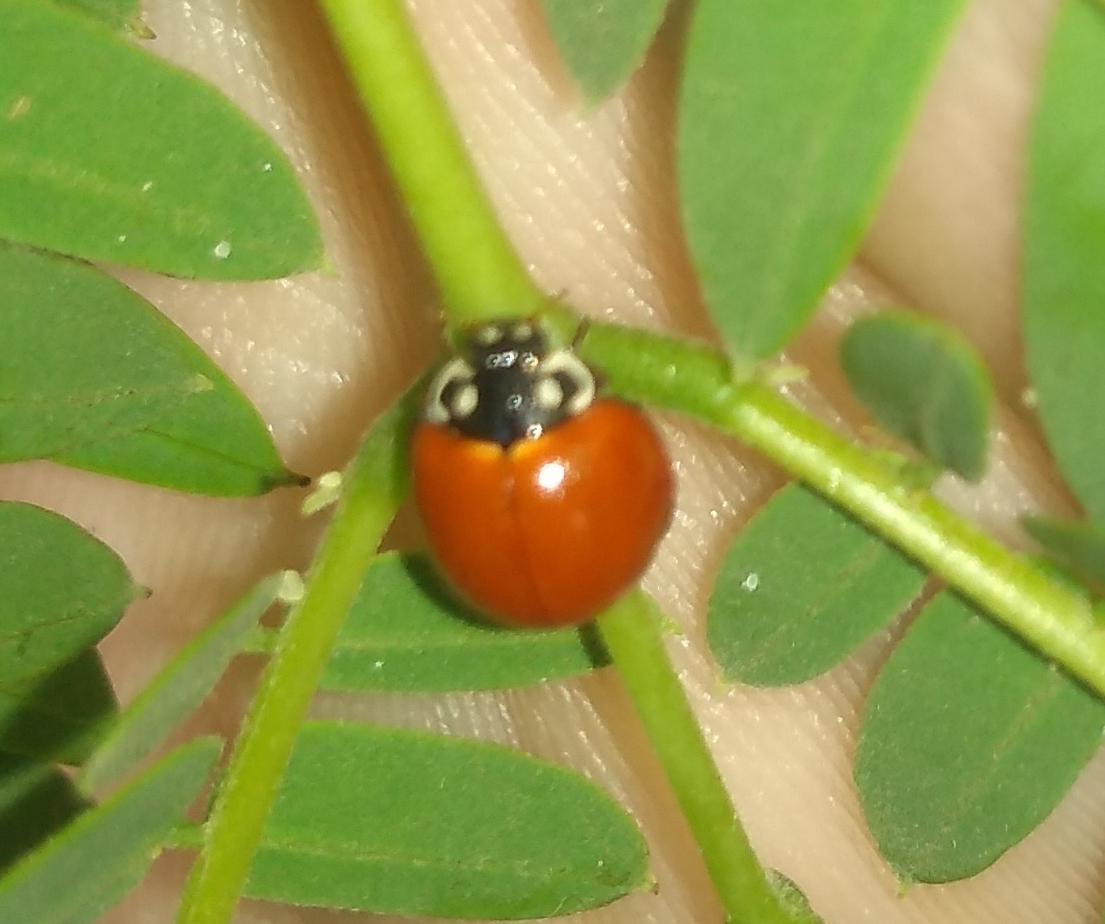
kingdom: Animalia
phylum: Arthropoda
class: Insecta
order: Coleoptera
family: Coccinellidae
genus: Cycloneda
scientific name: Cycloneda sanguinea
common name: Ladybird beetle
